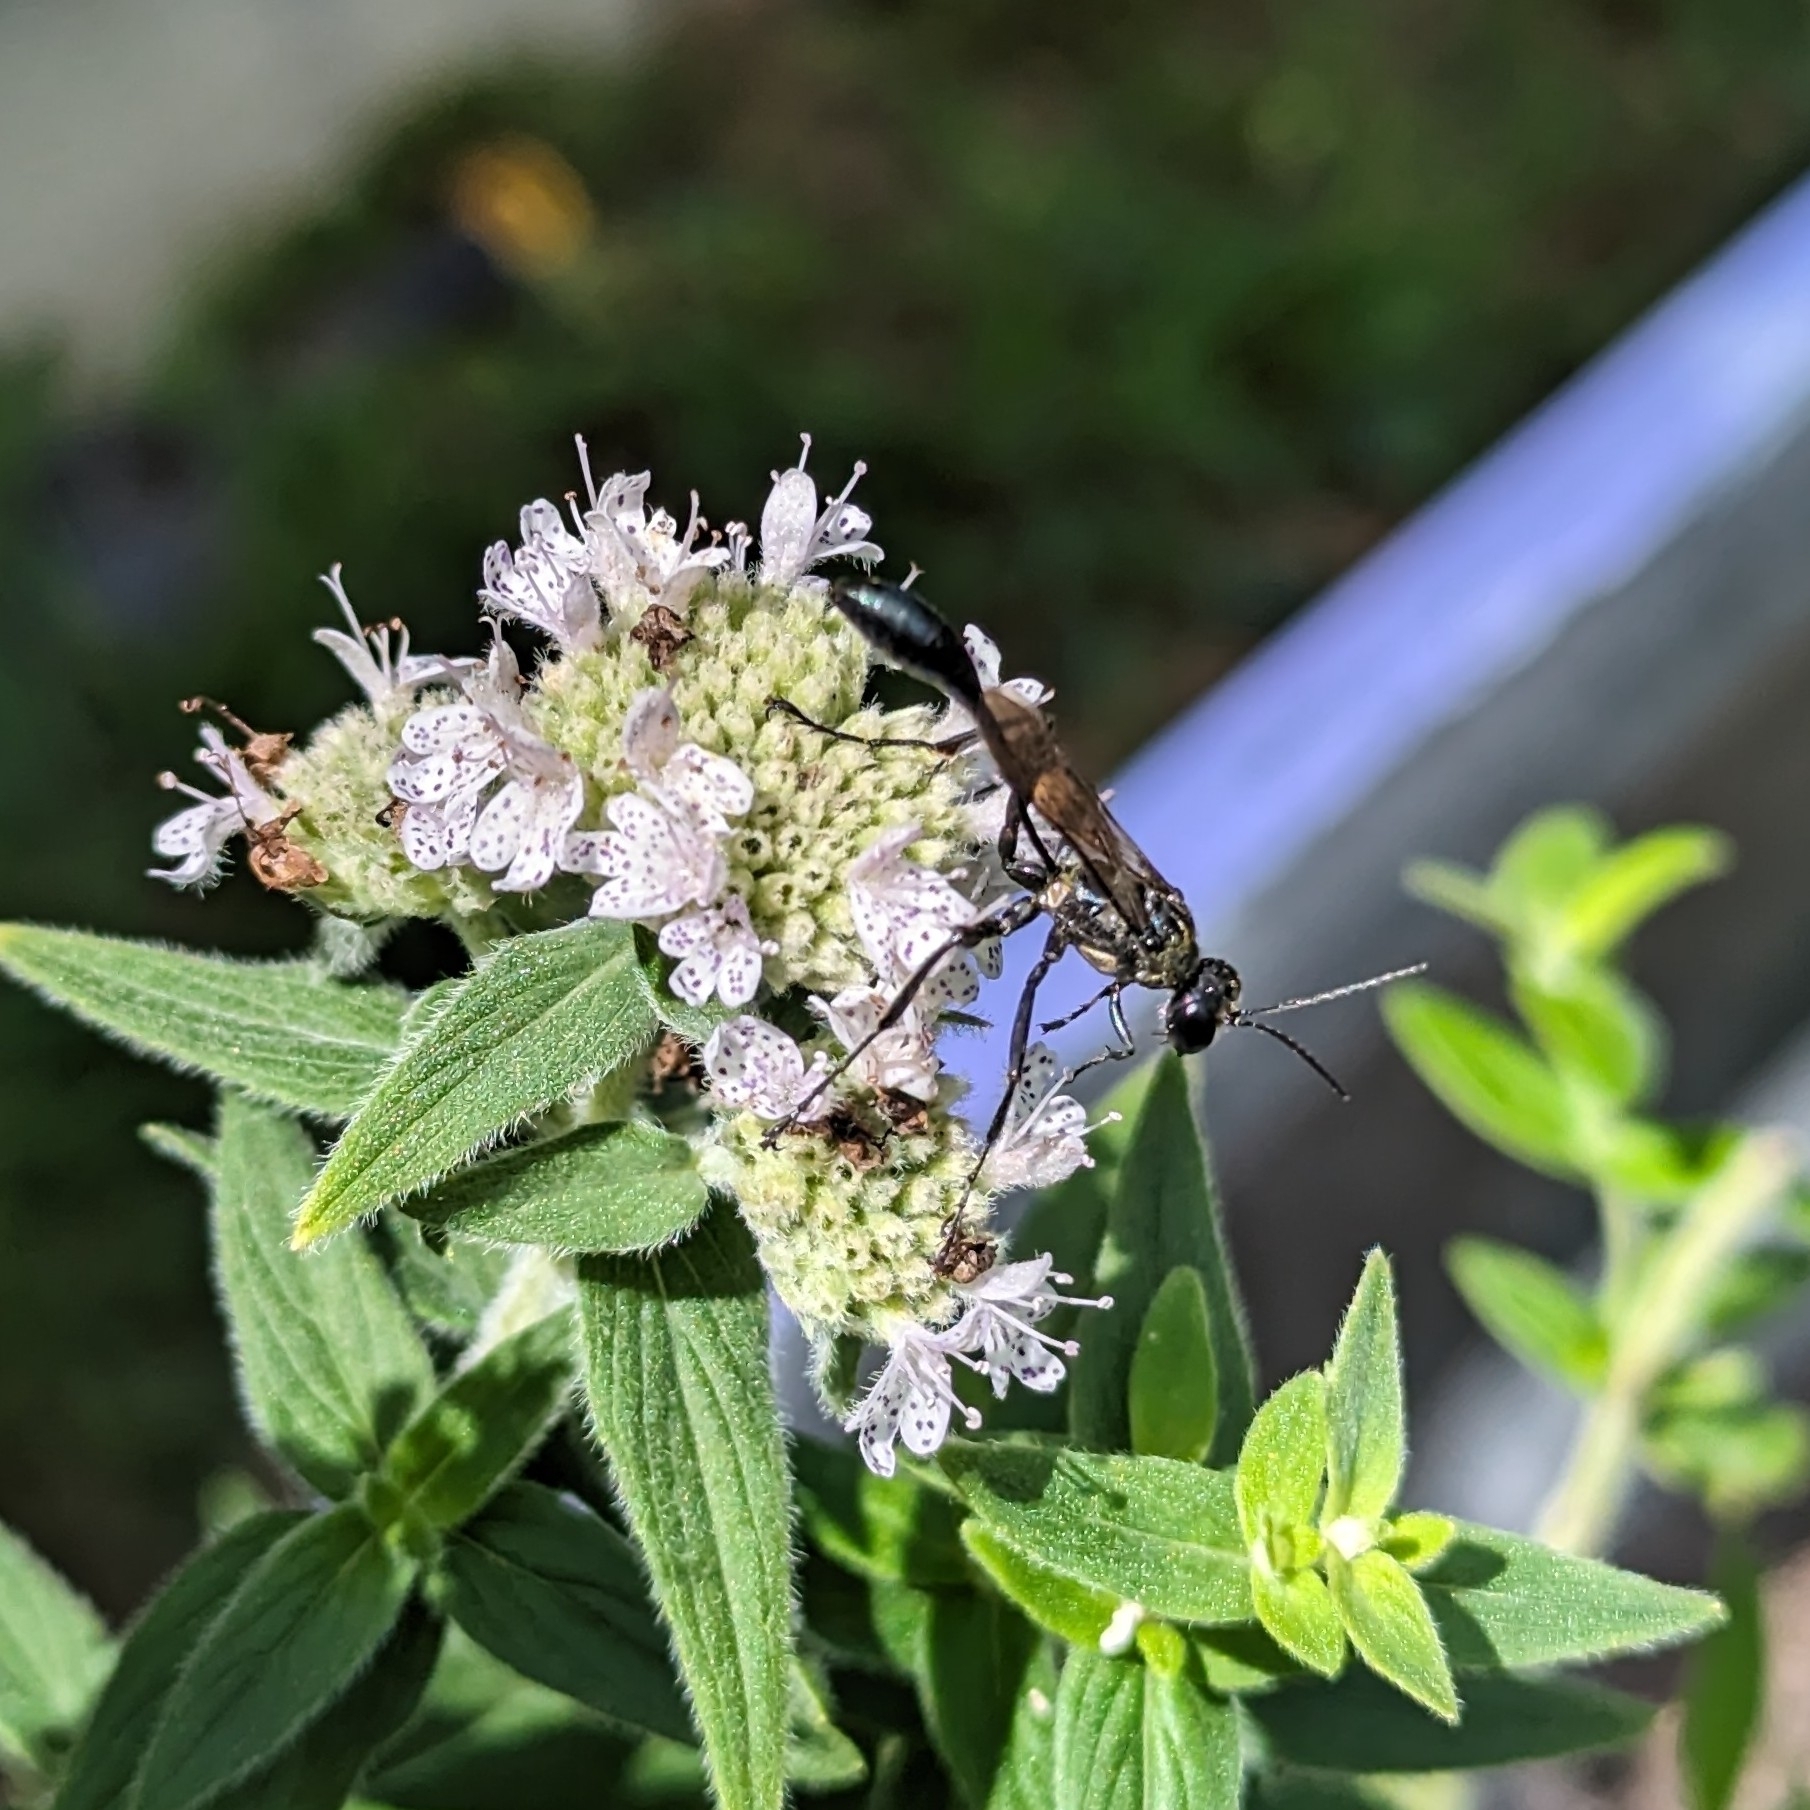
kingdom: Animalia
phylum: Arthropoda
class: Insecta
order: Hymenoptera
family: Sphecidae
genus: Eremnophila
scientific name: Eremnophila aureonotata
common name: Gold-marked thread-waisted wasp
